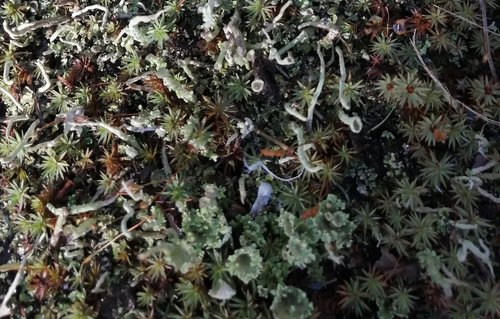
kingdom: Fungi
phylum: Ascomycota
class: Lecanoromycetes
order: Lecanorales
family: Cladoniaceae
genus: Cladonia
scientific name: Cladonia fimbriata
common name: Powdered trumpet lichen
